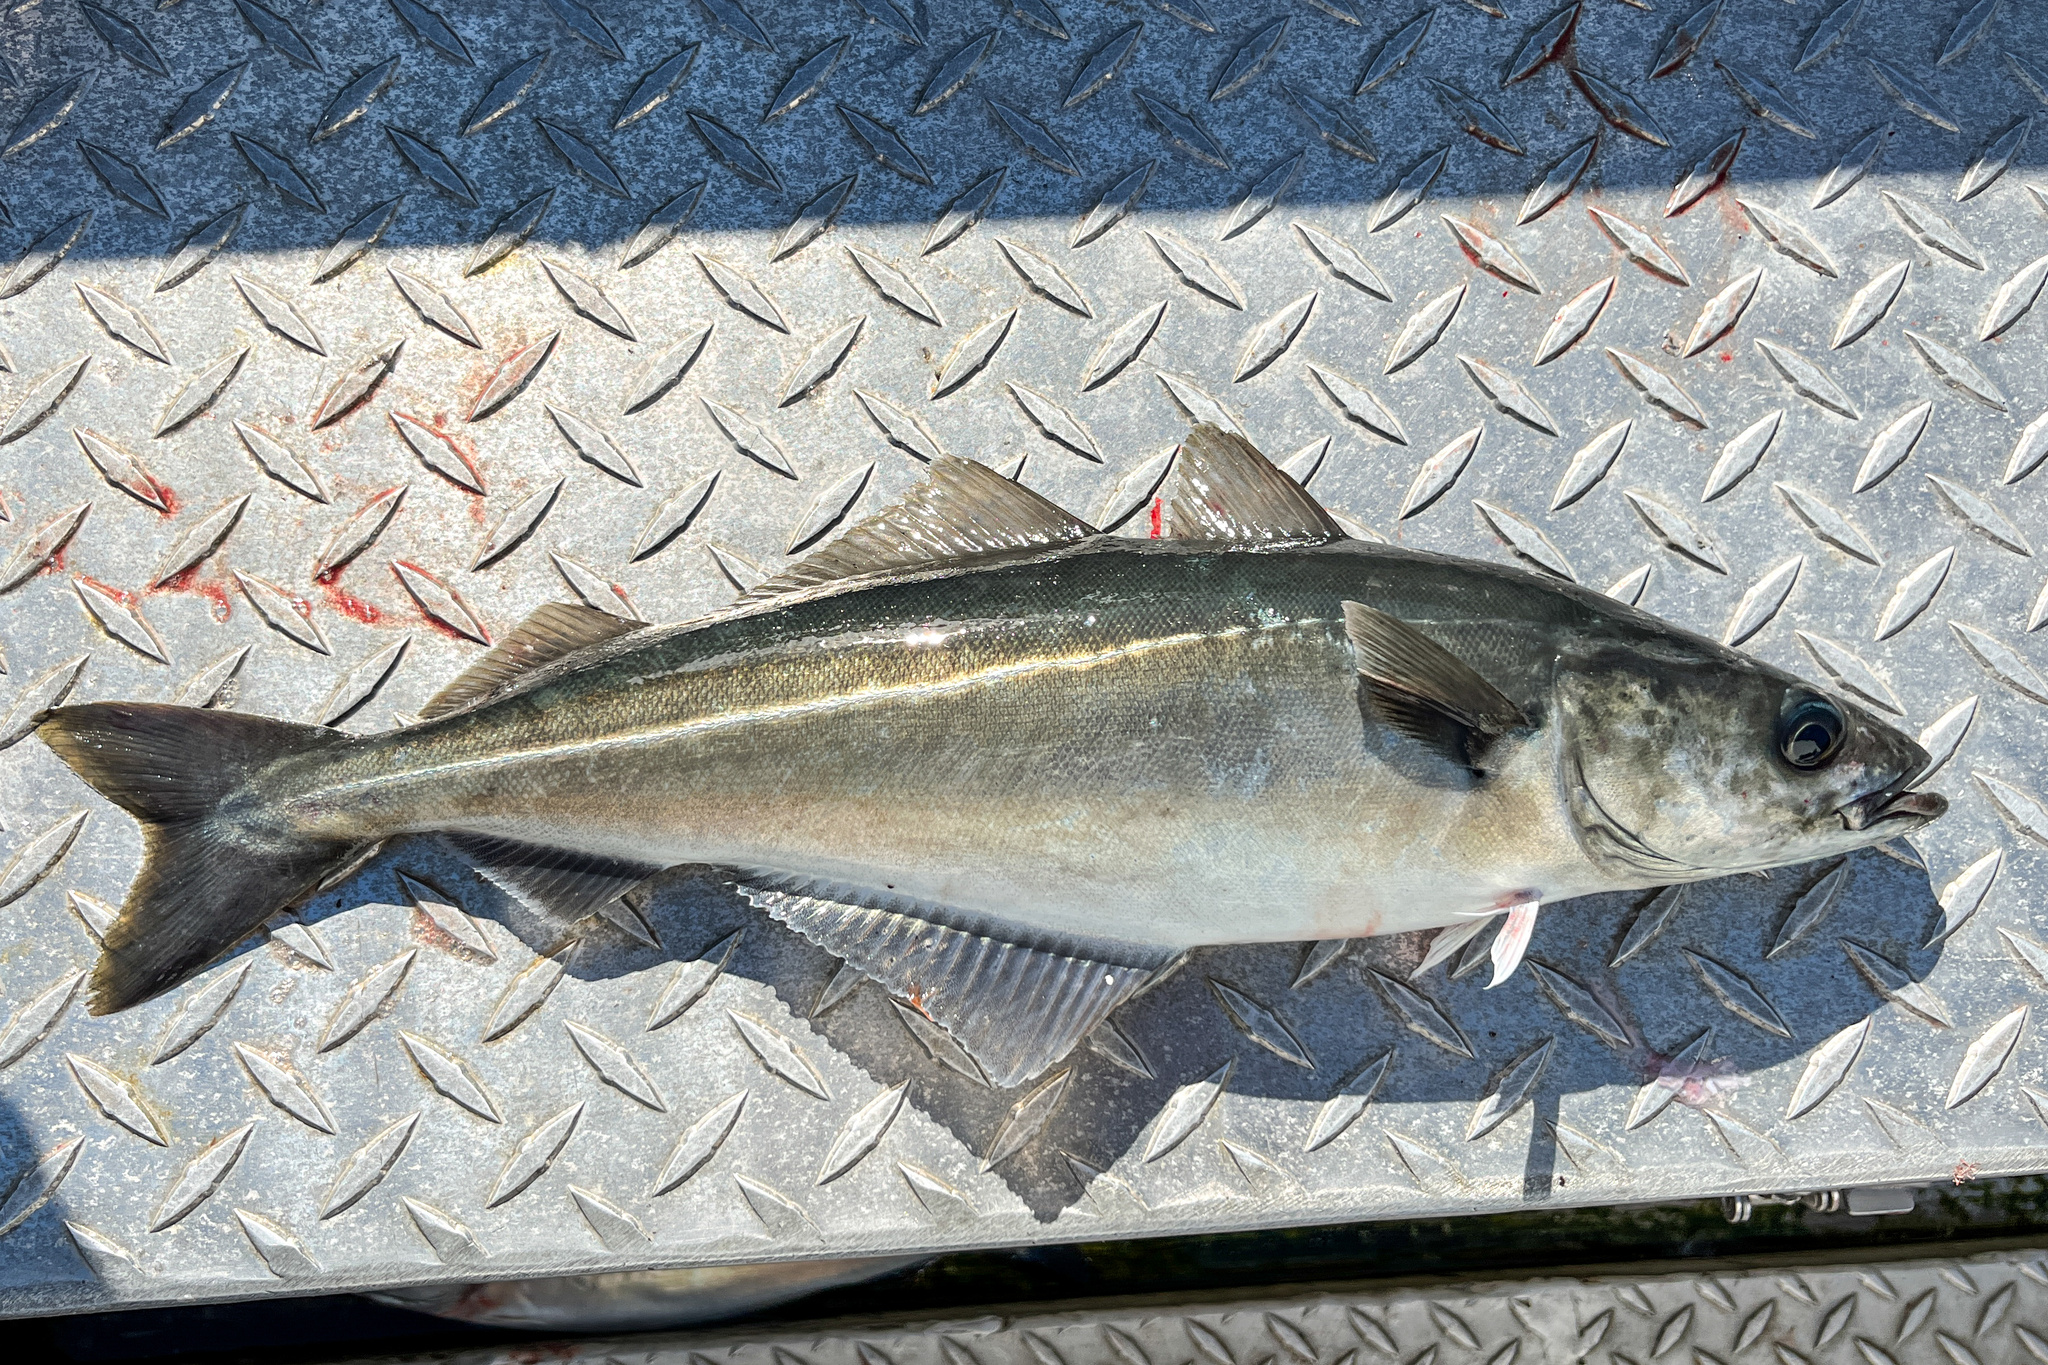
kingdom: Animalia
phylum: Chordata
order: Gadiformes
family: Gadidae
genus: Pollachius
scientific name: Pollachius virens
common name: Saithe
